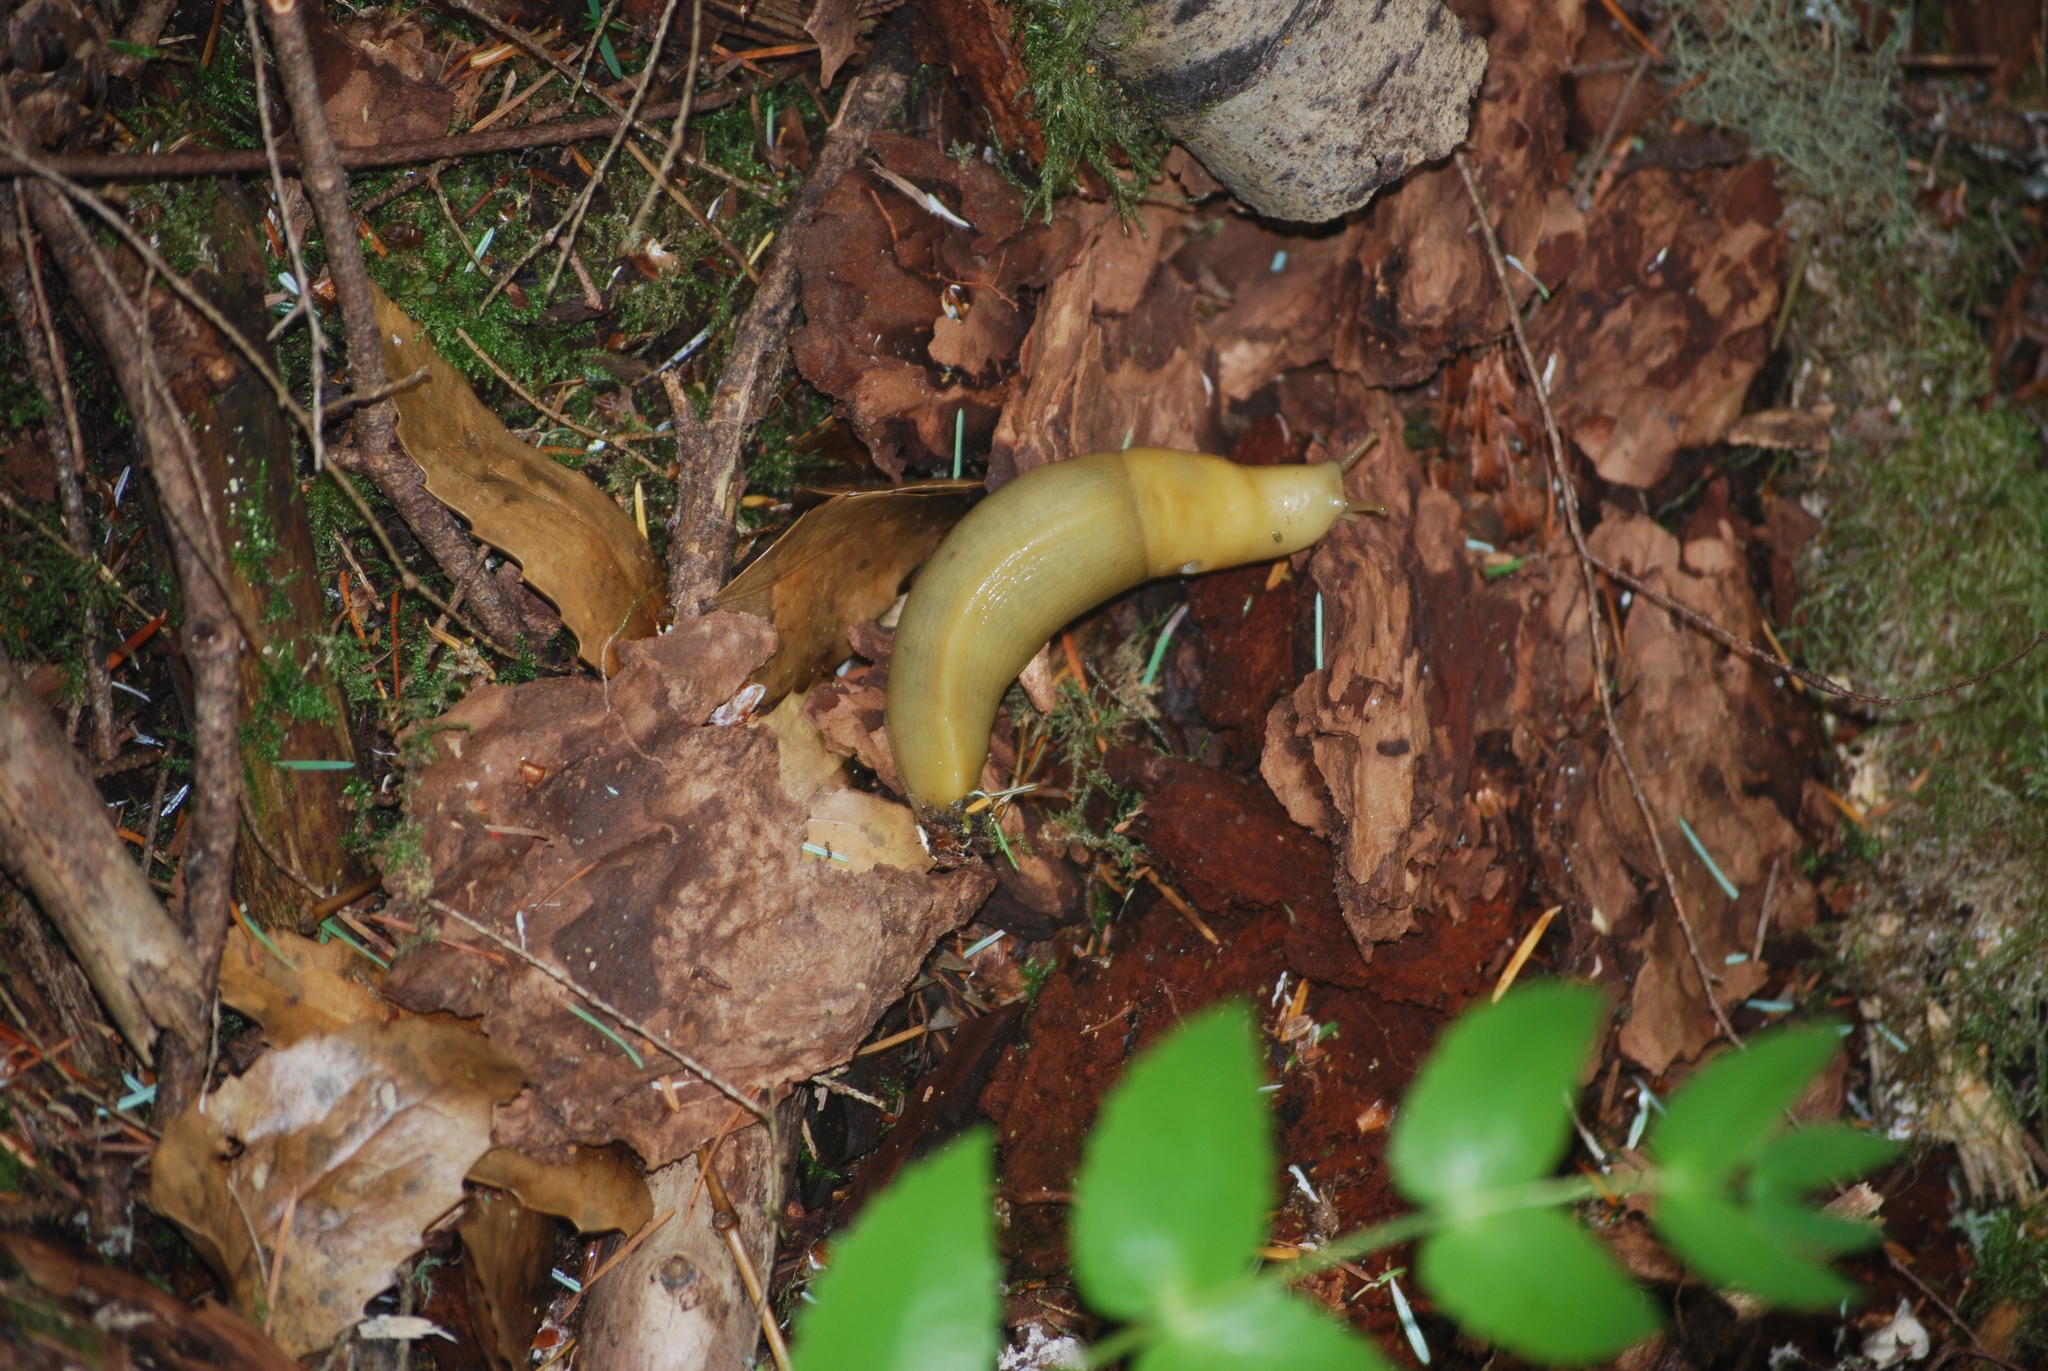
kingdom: Animalia
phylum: Mollusca
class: Gastropoda
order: Stylommatophora
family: Ariolimacidae
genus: Ariolimax
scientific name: Ariolimax columbianus
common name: Pacific banana slug
